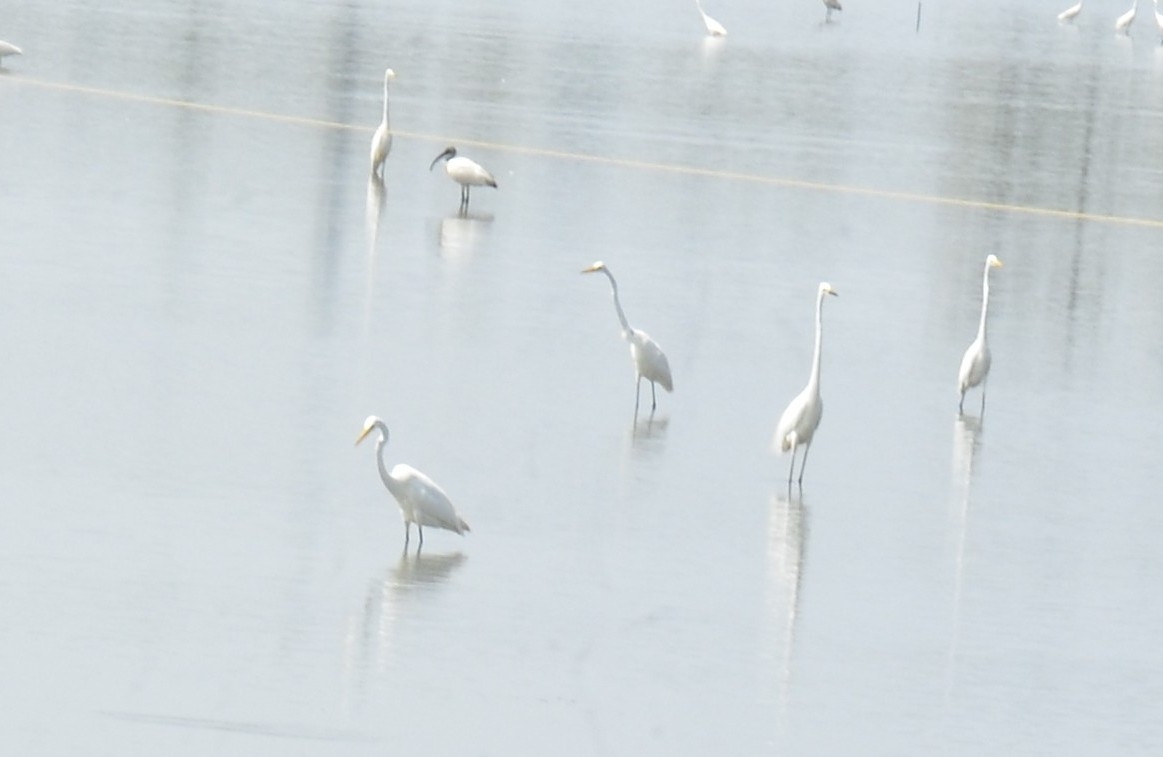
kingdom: Animalia
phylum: Chordata
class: Aves
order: Pelecaniformes
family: Ardeidae
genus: Ardea
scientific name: Ardea alba
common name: Great egret
